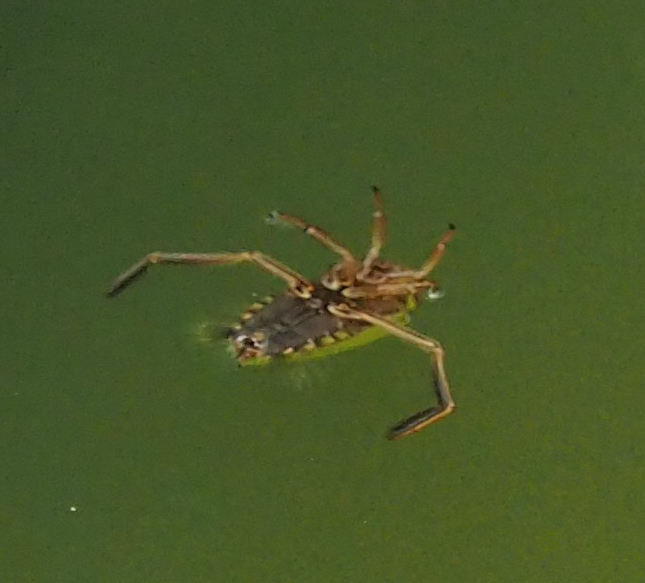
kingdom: Animalia
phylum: Arthropoda
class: Insecta
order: Hemiptera
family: Notonectidae
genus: Notonecta
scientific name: Notonecta
